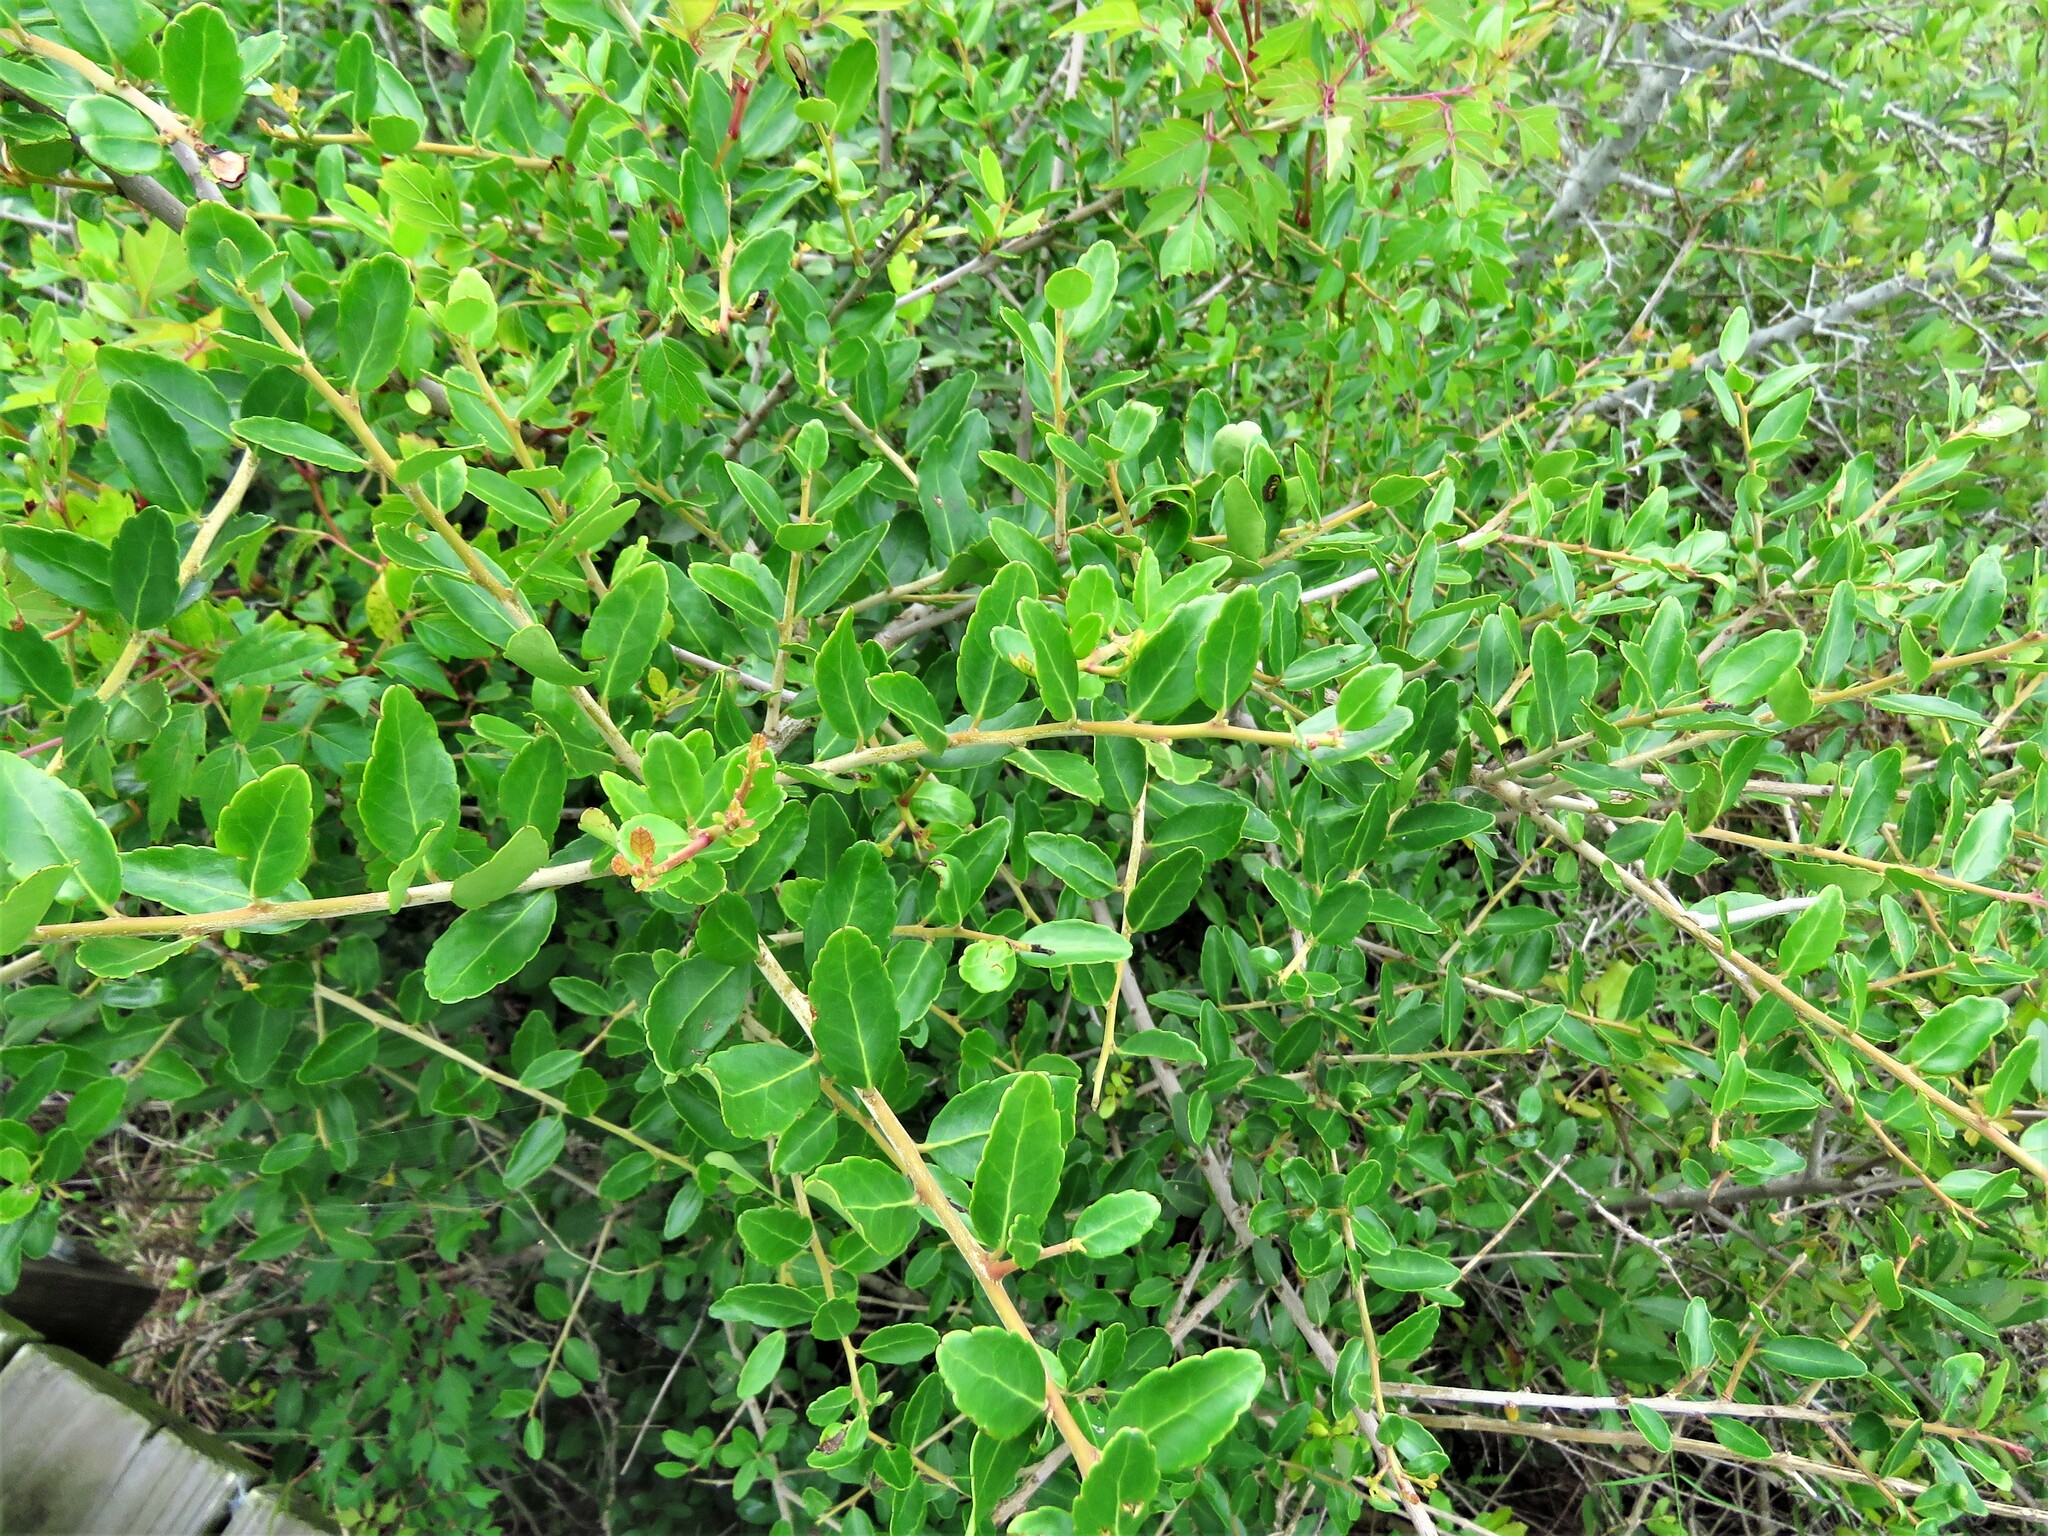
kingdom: Plantae
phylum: Tracheophyta
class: Magnoliopsida
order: Aquifoliales
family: Aquifoliaceae
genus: Ilex
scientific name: Ilex vomitoria
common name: Yaupon holly
